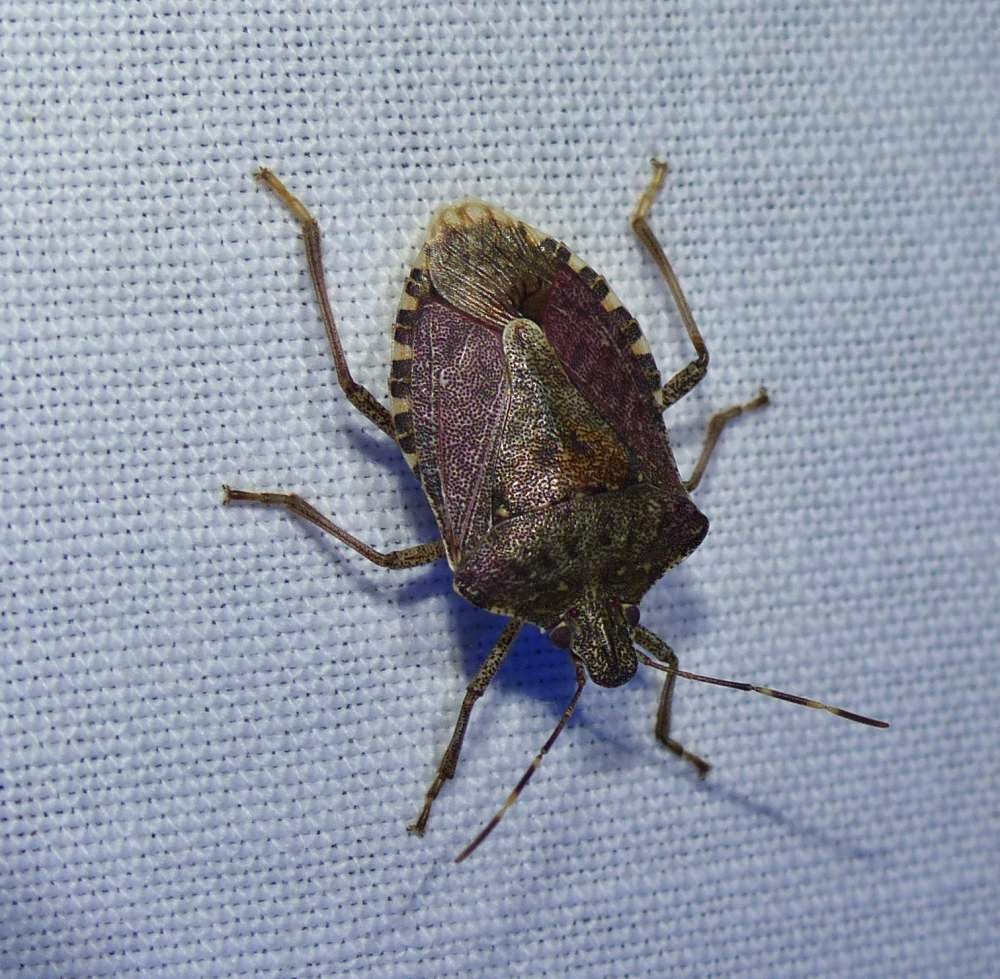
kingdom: Animalia
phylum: Arthropoda
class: Insecta
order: Hemiptera
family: Pentatomidae
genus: Halyomorpha
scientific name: Halyomorpha halys
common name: Brown marmorated stink bug
